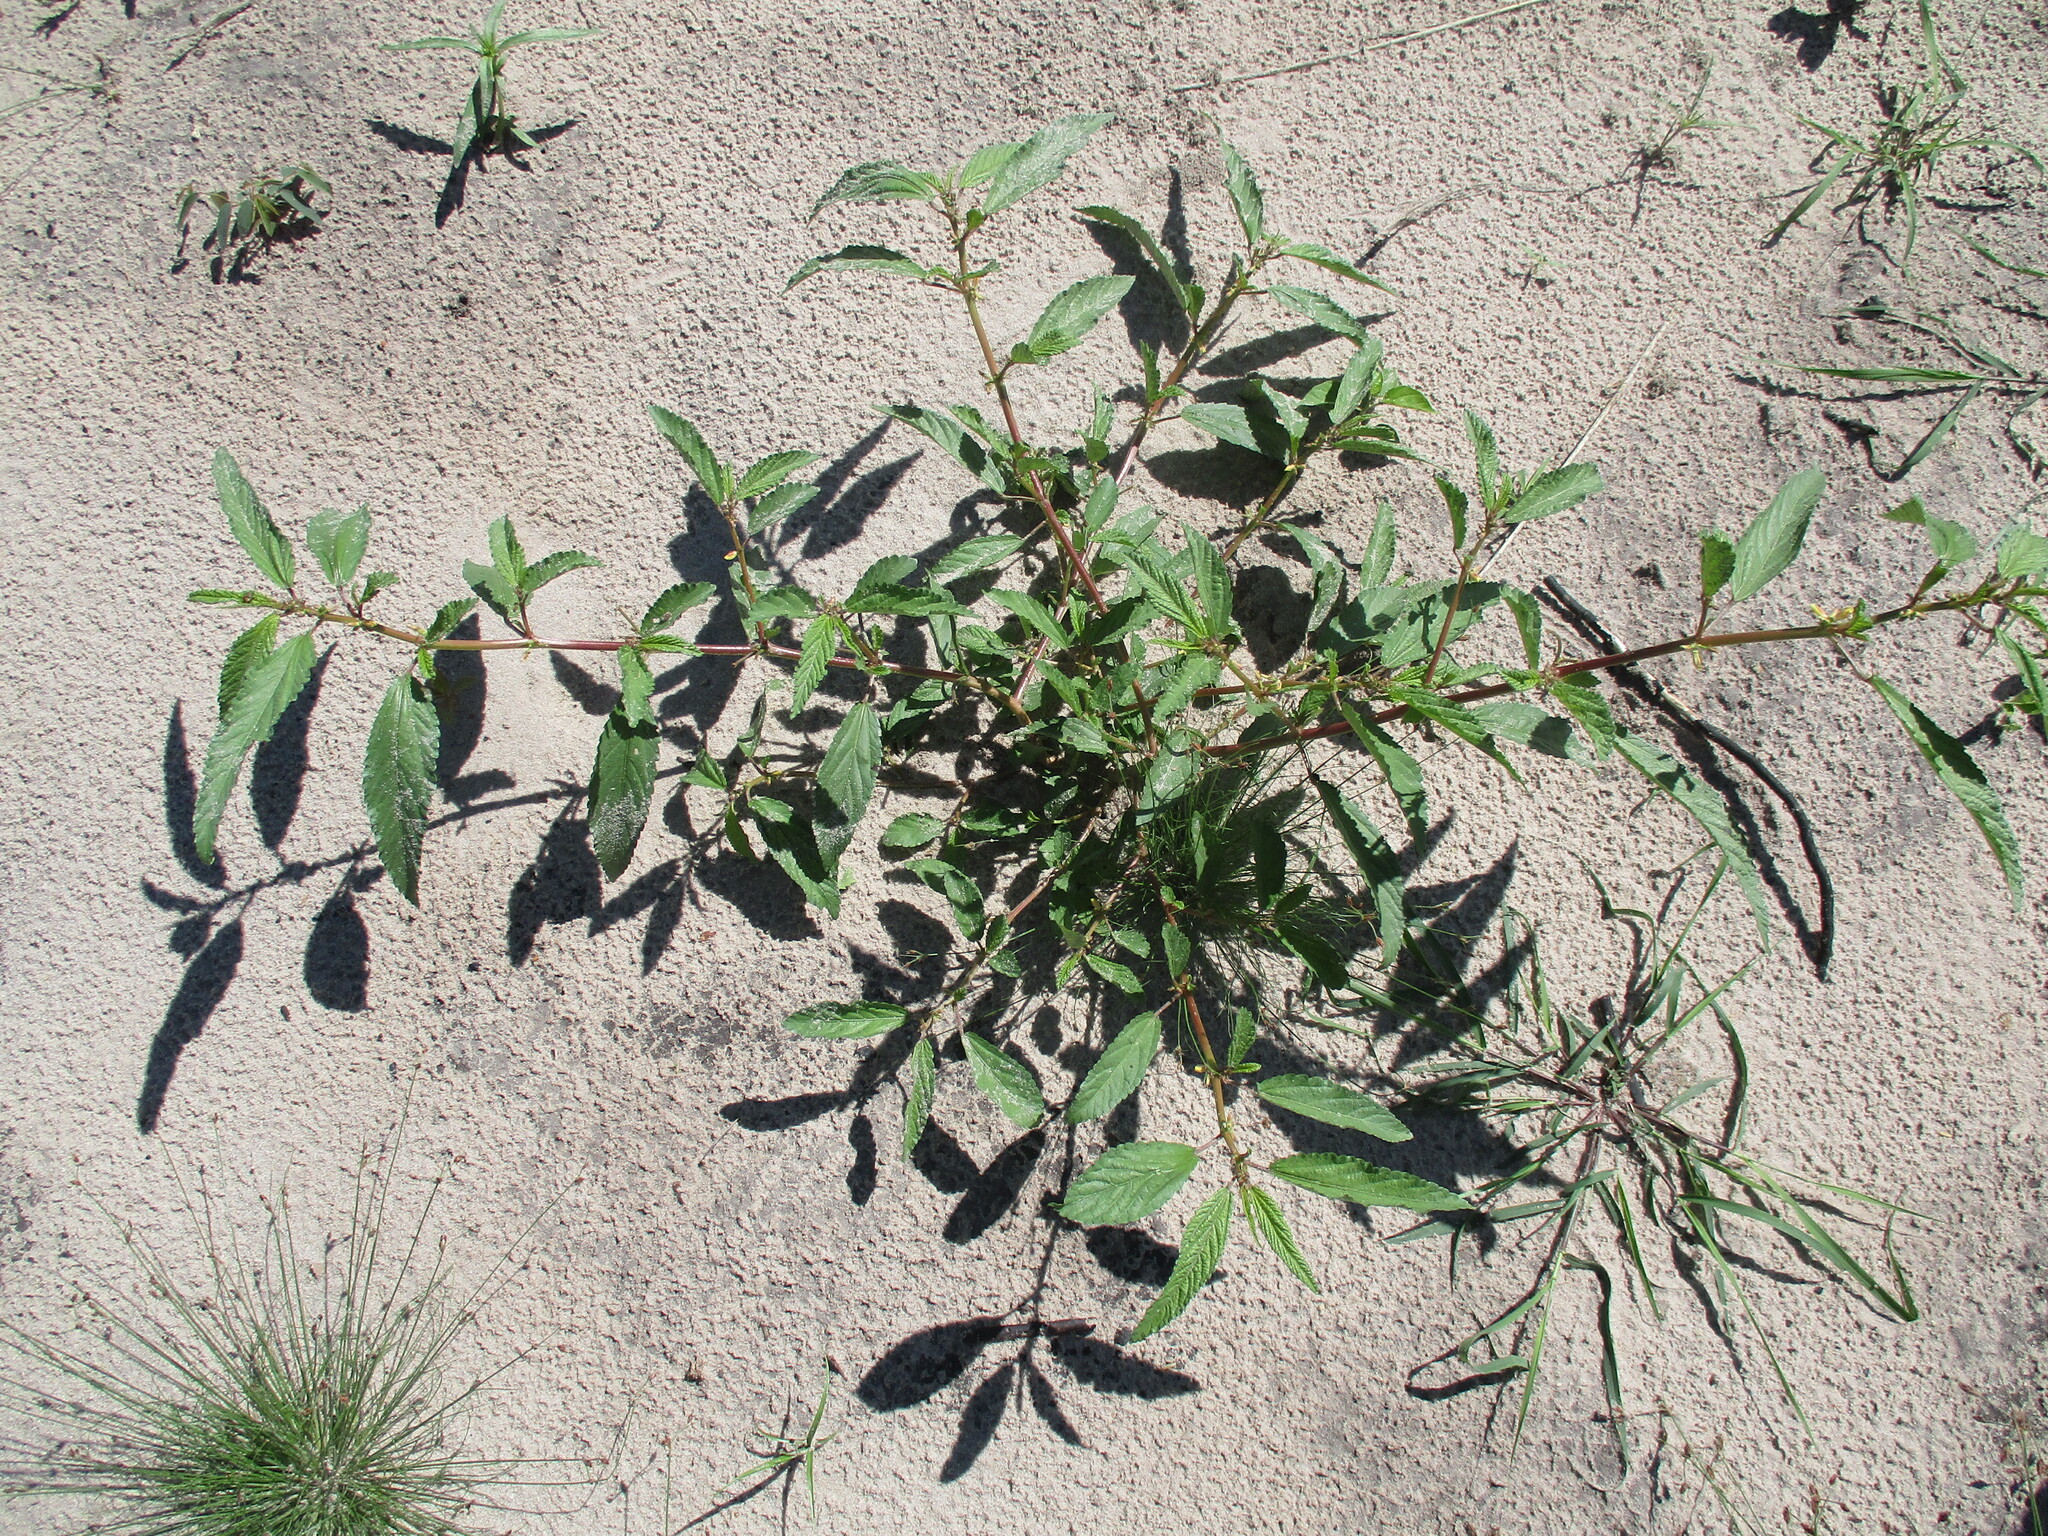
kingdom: Plantae
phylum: Tracheophyta
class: Magnoliopsida
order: Malvales
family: Malvaceae
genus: Corchorus
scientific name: Corchorus tridens
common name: Wild jute
